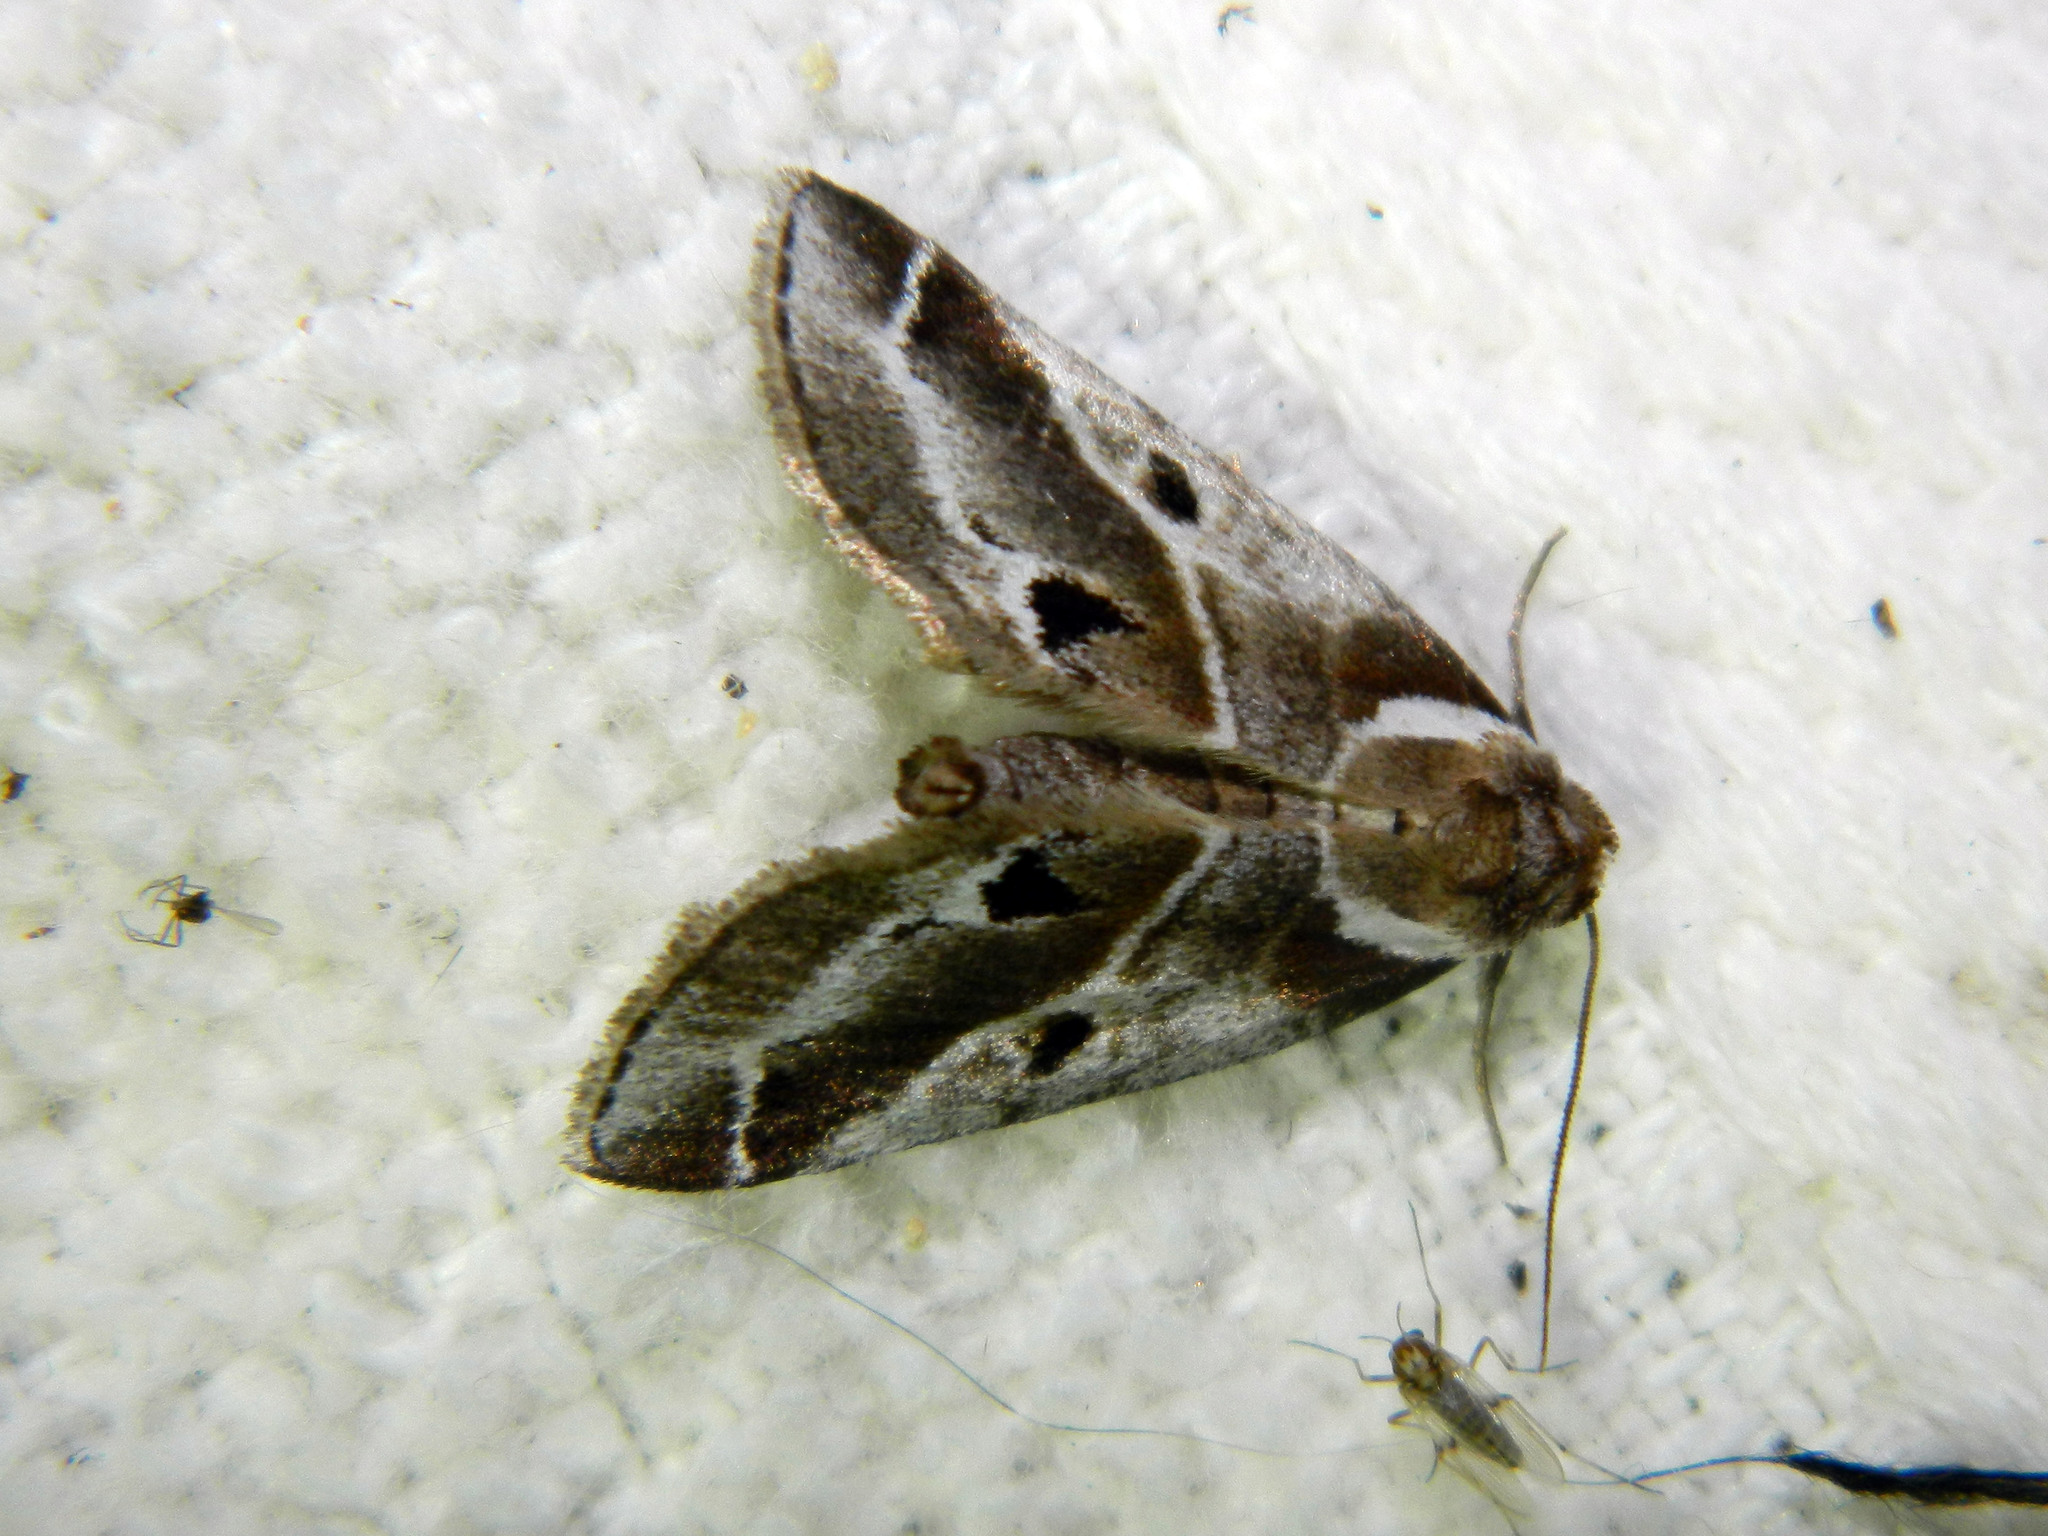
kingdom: Animalia
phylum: Arthropoda
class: Insecta
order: Lepidoptera
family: Nolidae
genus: Baileya
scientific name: Baileya doubledayi
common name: Doubleday's baileya moth
